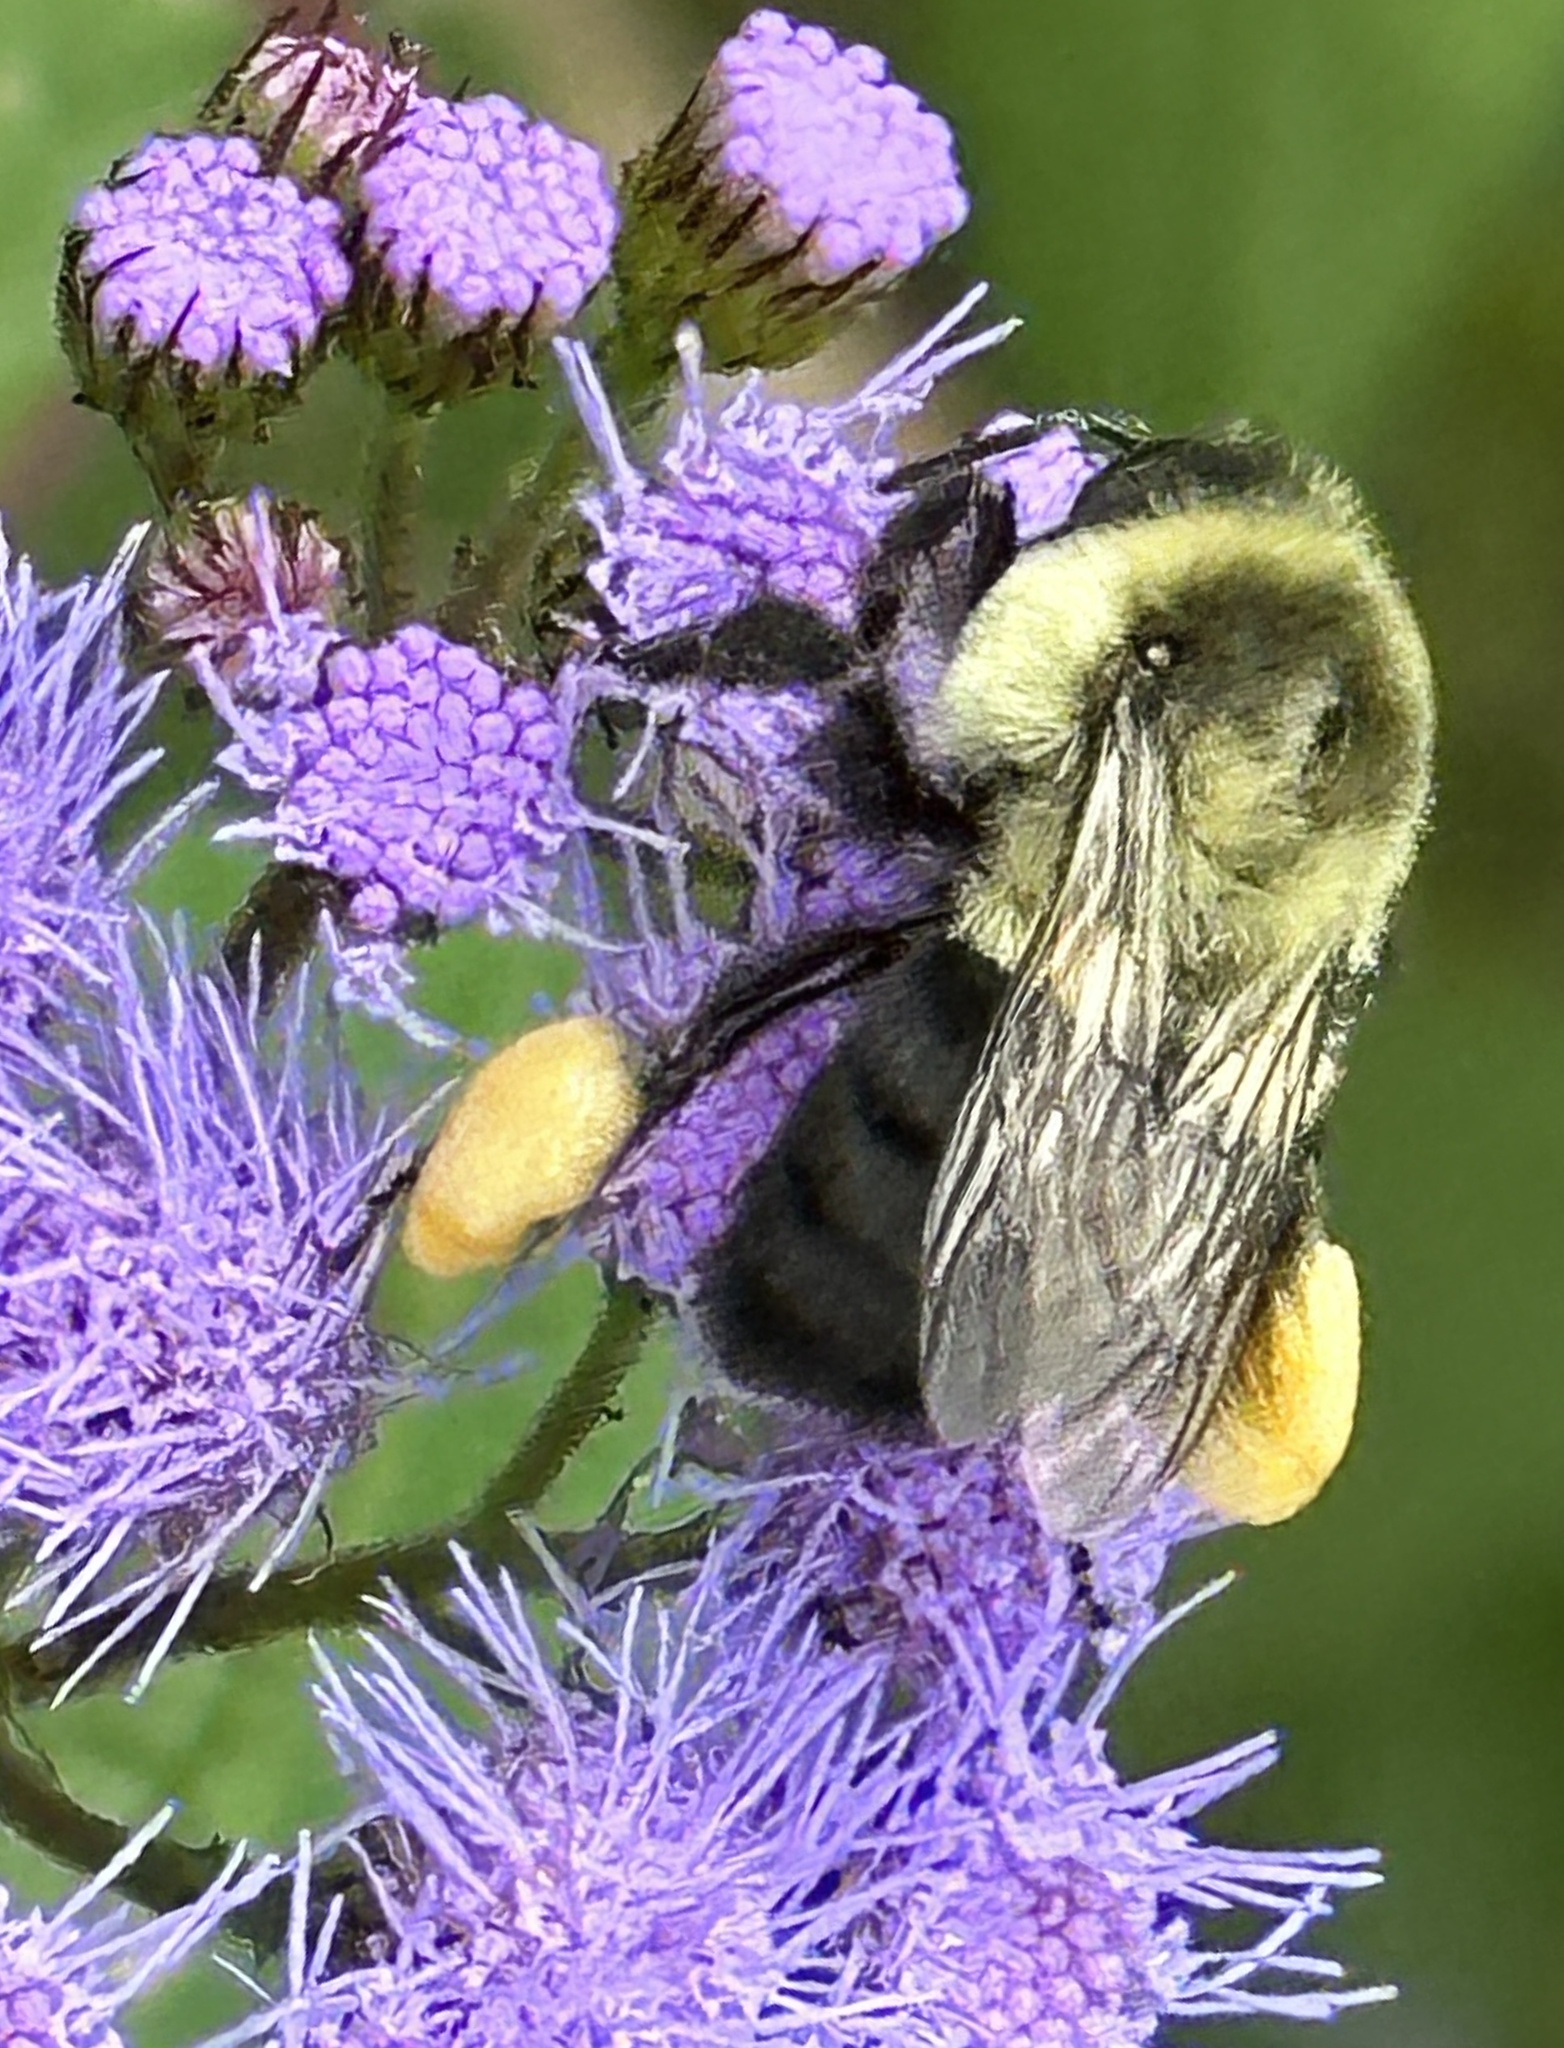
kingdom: Animalia
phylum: Arthropoda
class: Insecta
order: Hymenoptera
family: Apidae
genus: Bombus
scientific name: Bombus impatiens
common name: Common eastern bumble bee
